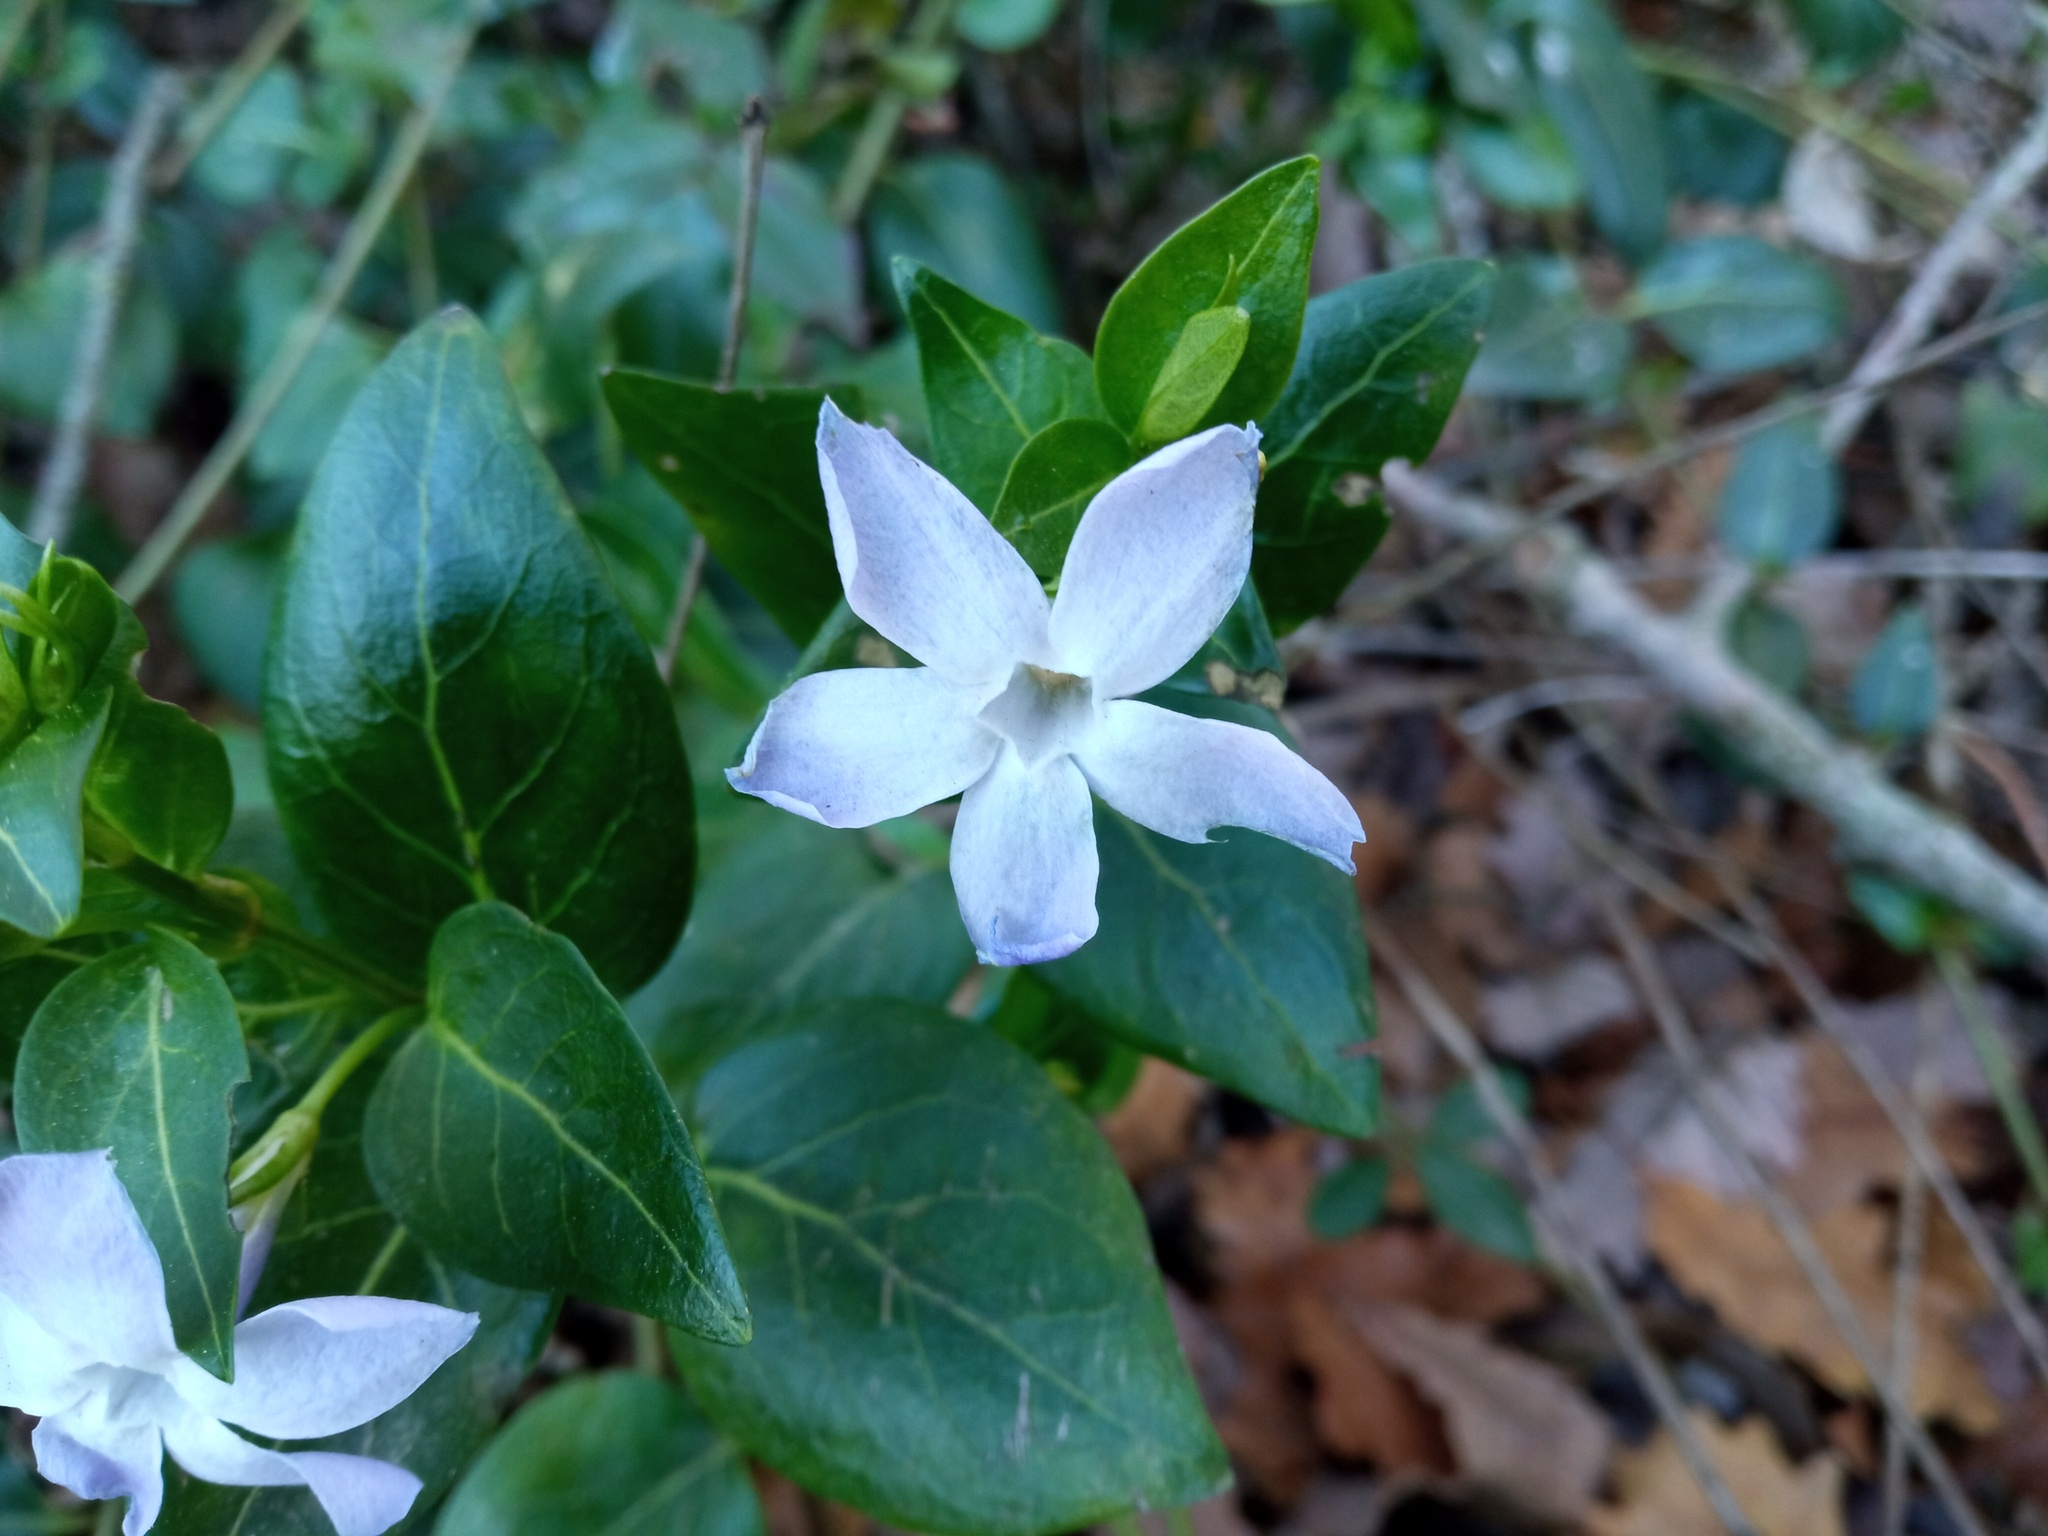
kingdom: Plantae
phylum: Tracheophyta
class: Magnoliopsida
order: Gentianales
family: Apocynaceae
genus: Vinca
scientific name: Vinca difformis
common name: Intermediate periwinkle
